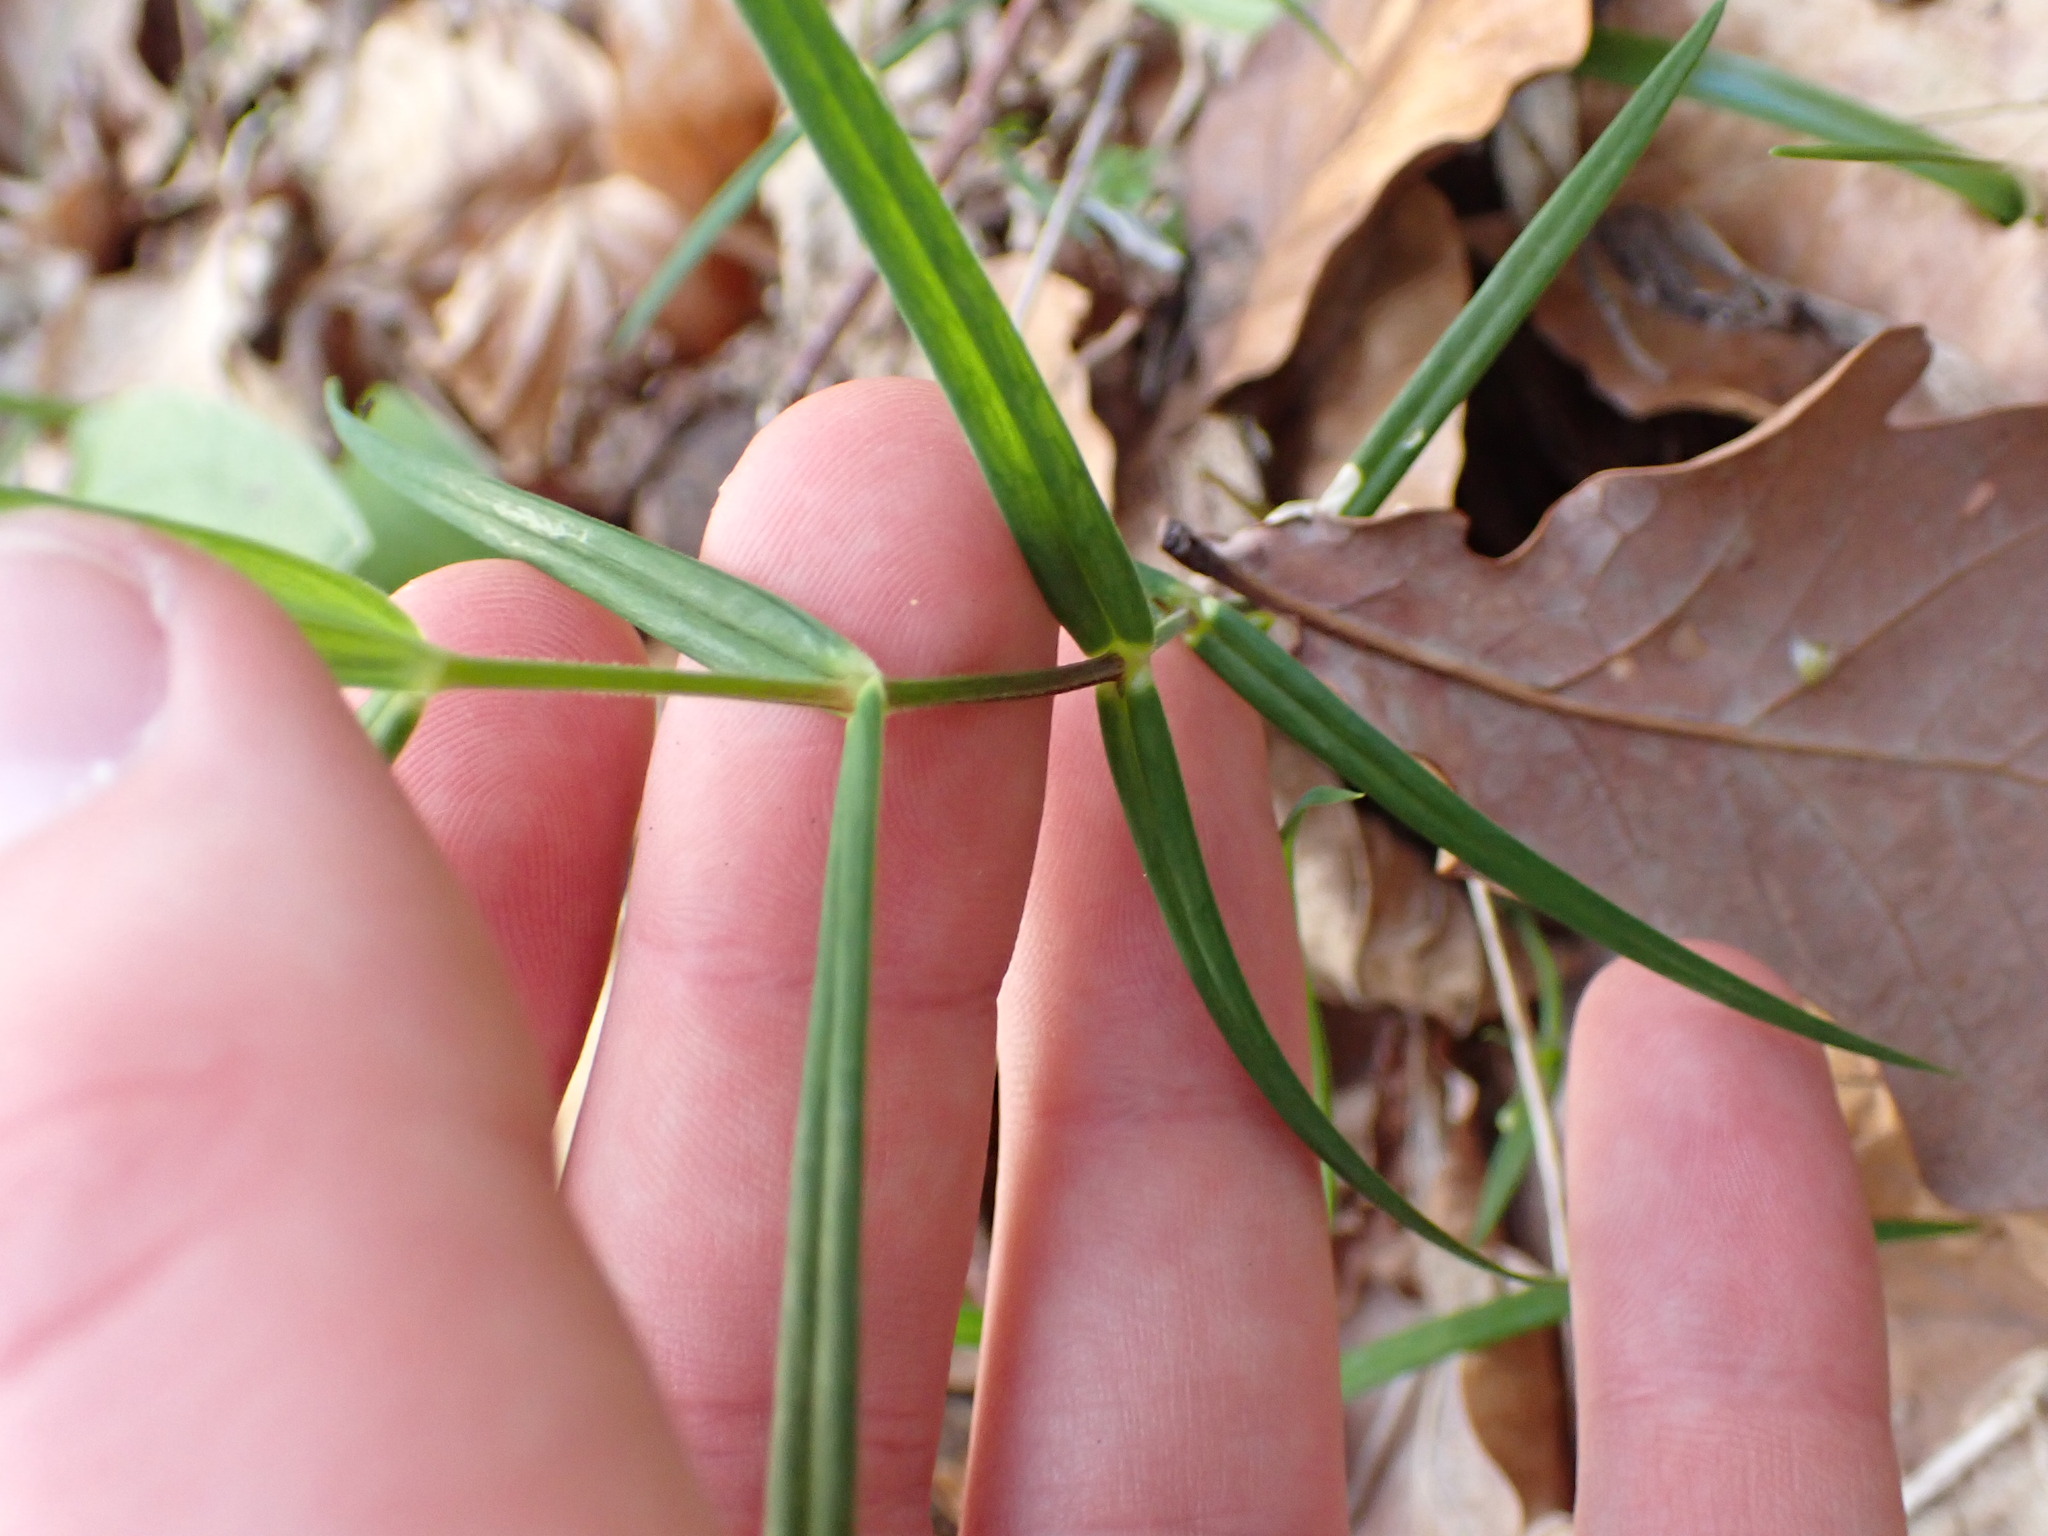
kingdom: Plantae
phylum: Tracheophyta
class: Magnoliopsida
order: Caryophyllales
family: Caryophyllaceae
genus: Rabelera
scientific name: Rabelera holostea
